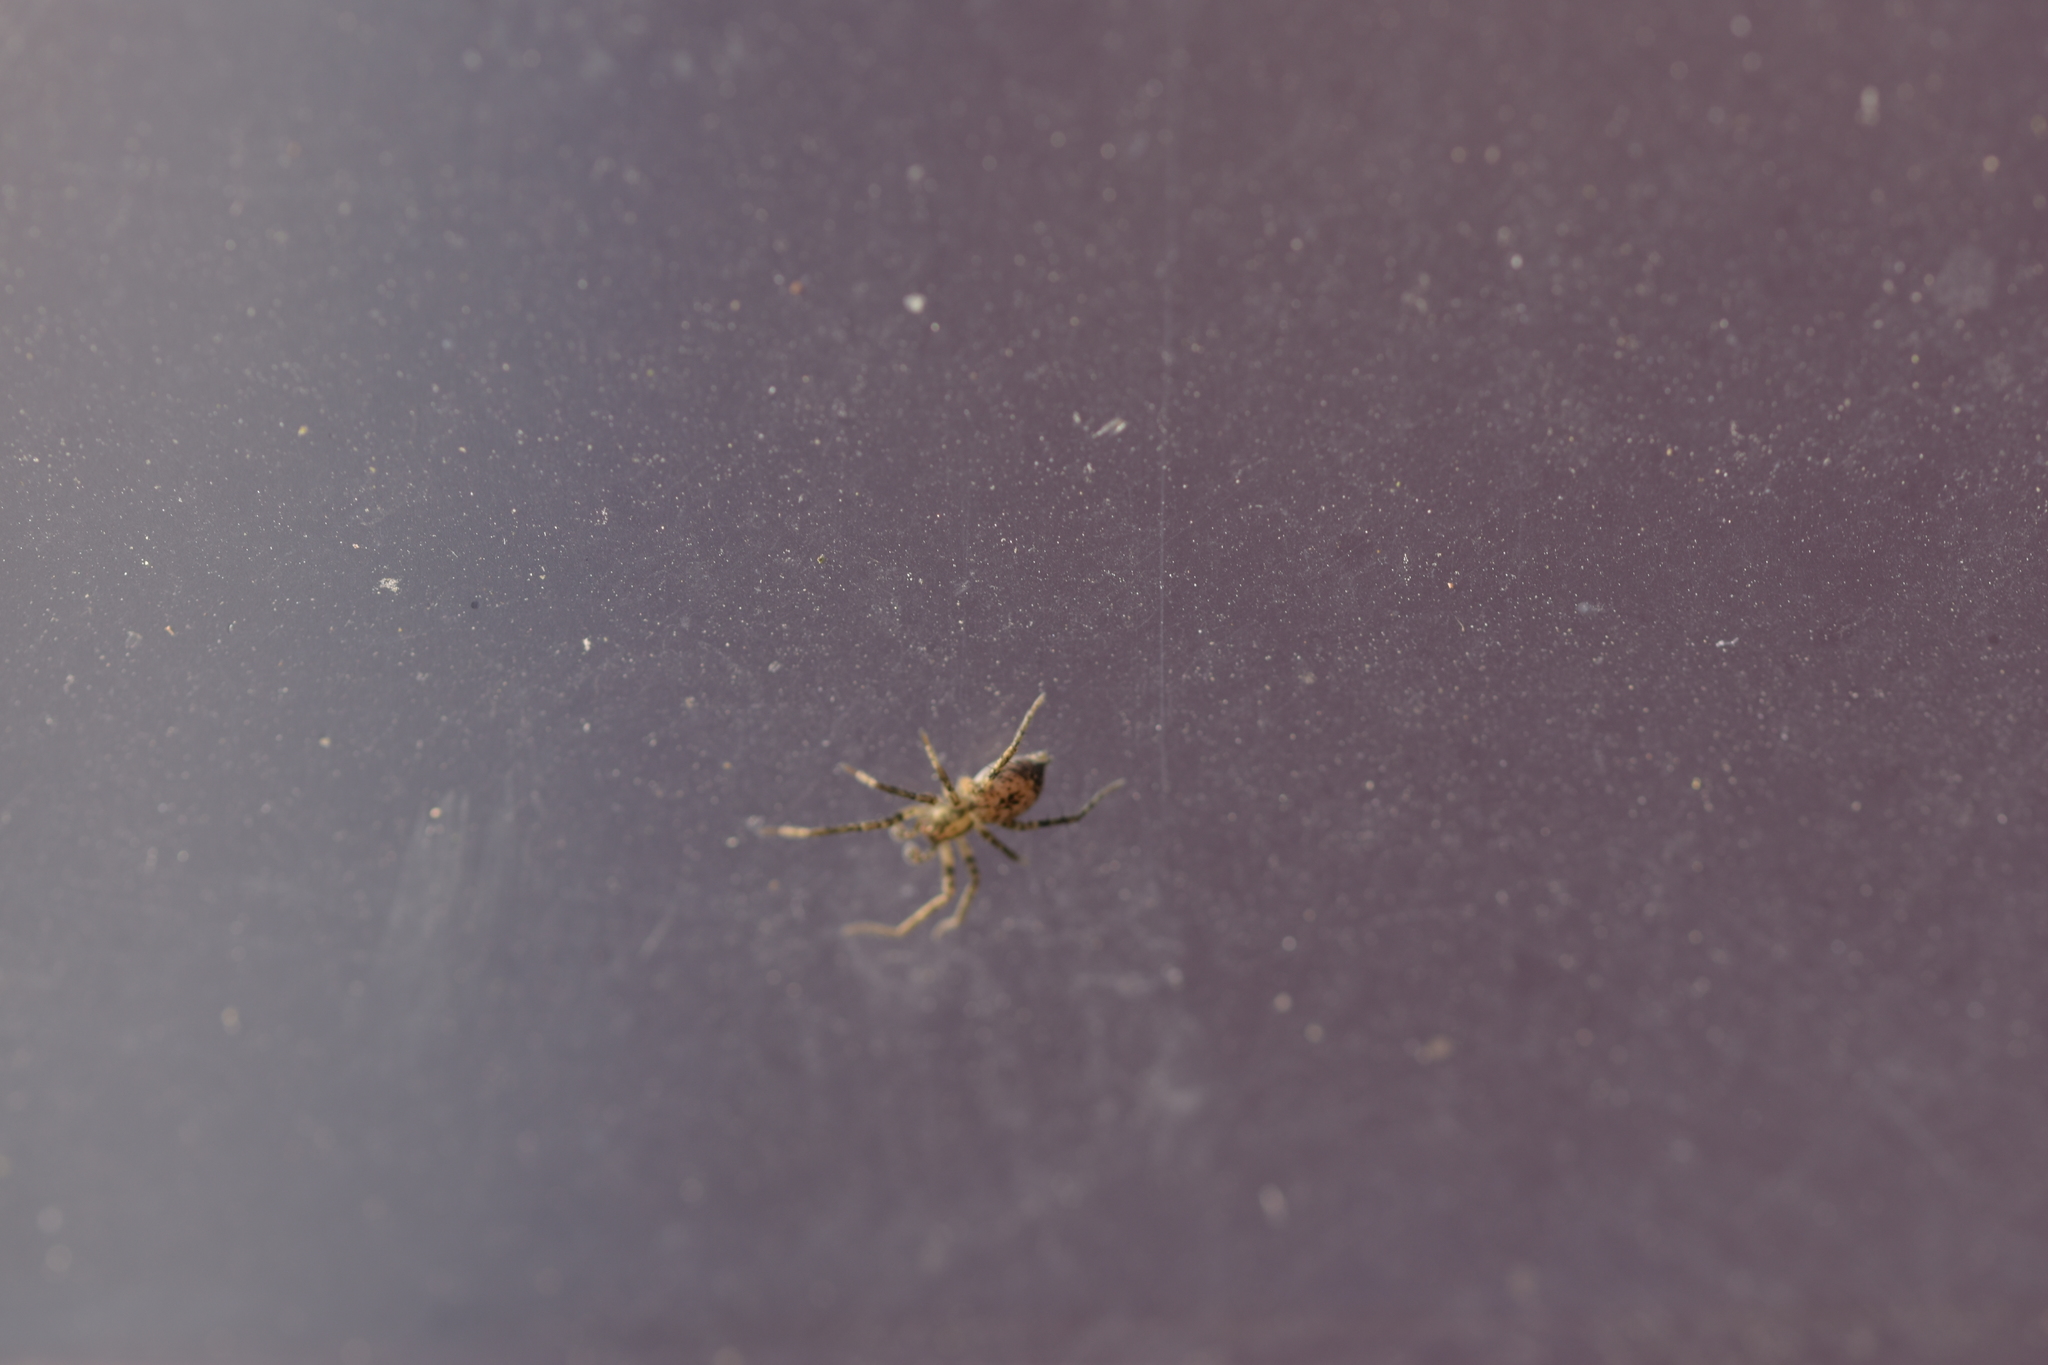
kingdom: Animalia
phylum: Arthropoda
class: Arachnida
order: Araneae
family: Anyphaenidae
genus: Anyphaena
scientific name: Anyphaena accentuata
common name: Buzzing spider
